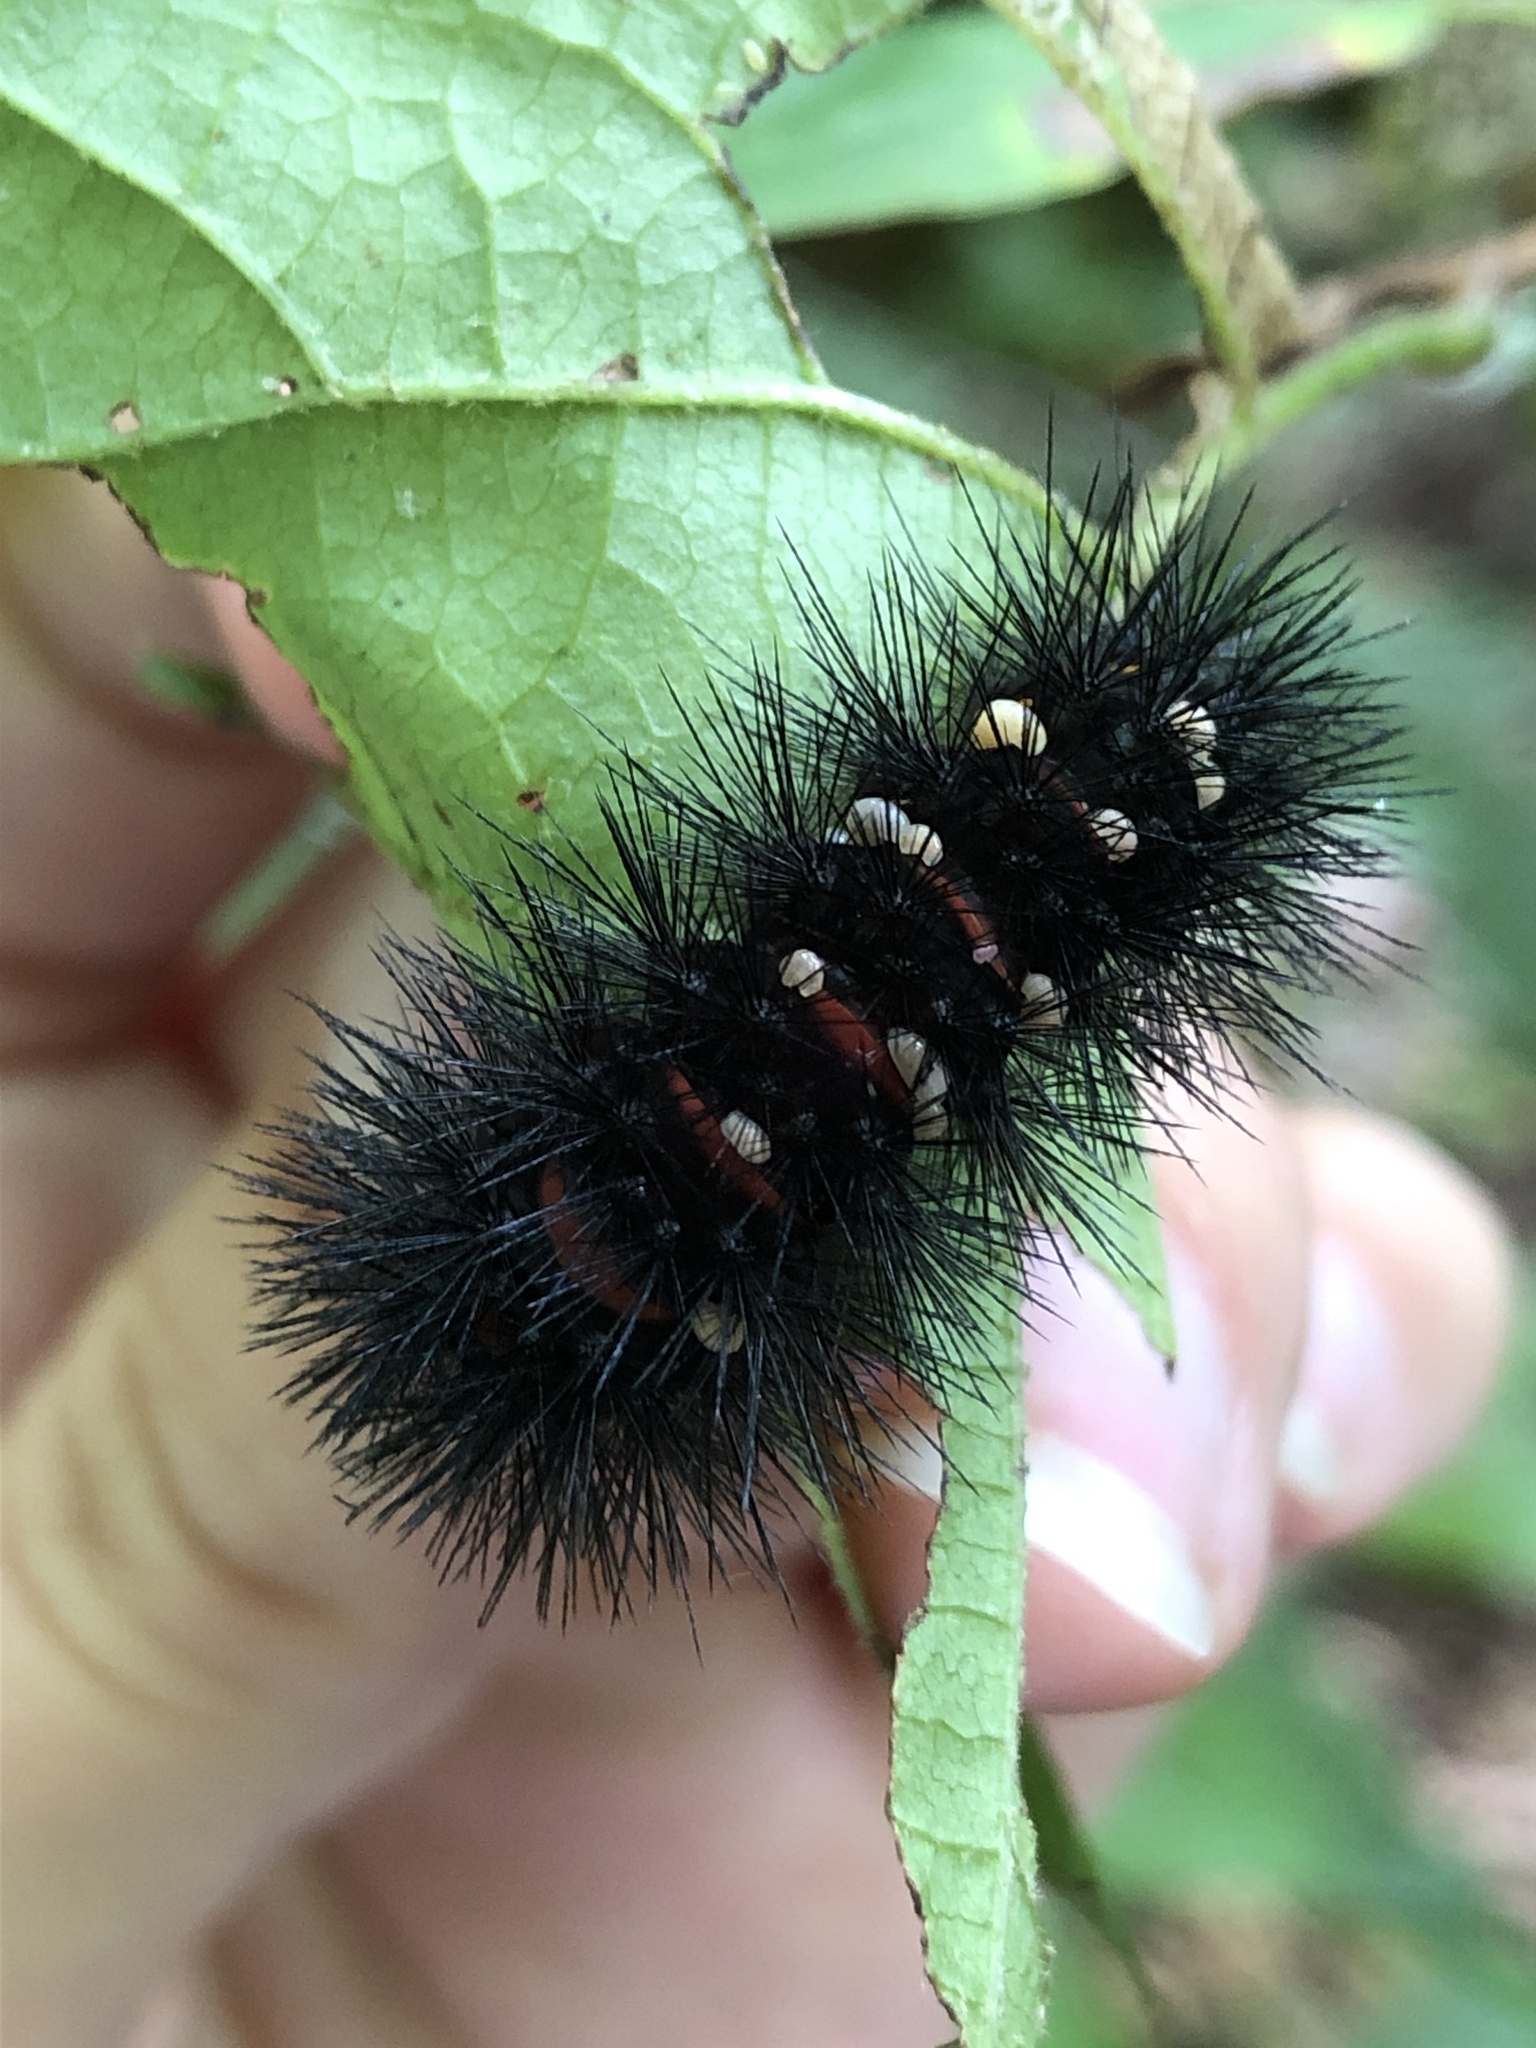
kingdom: Animalia
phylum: Arthropoda
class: Insecta
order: Lepidoptera
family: Erebidae
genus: Hypercompe
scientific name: Hypercompe scribonia
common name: Giant leopard moth
